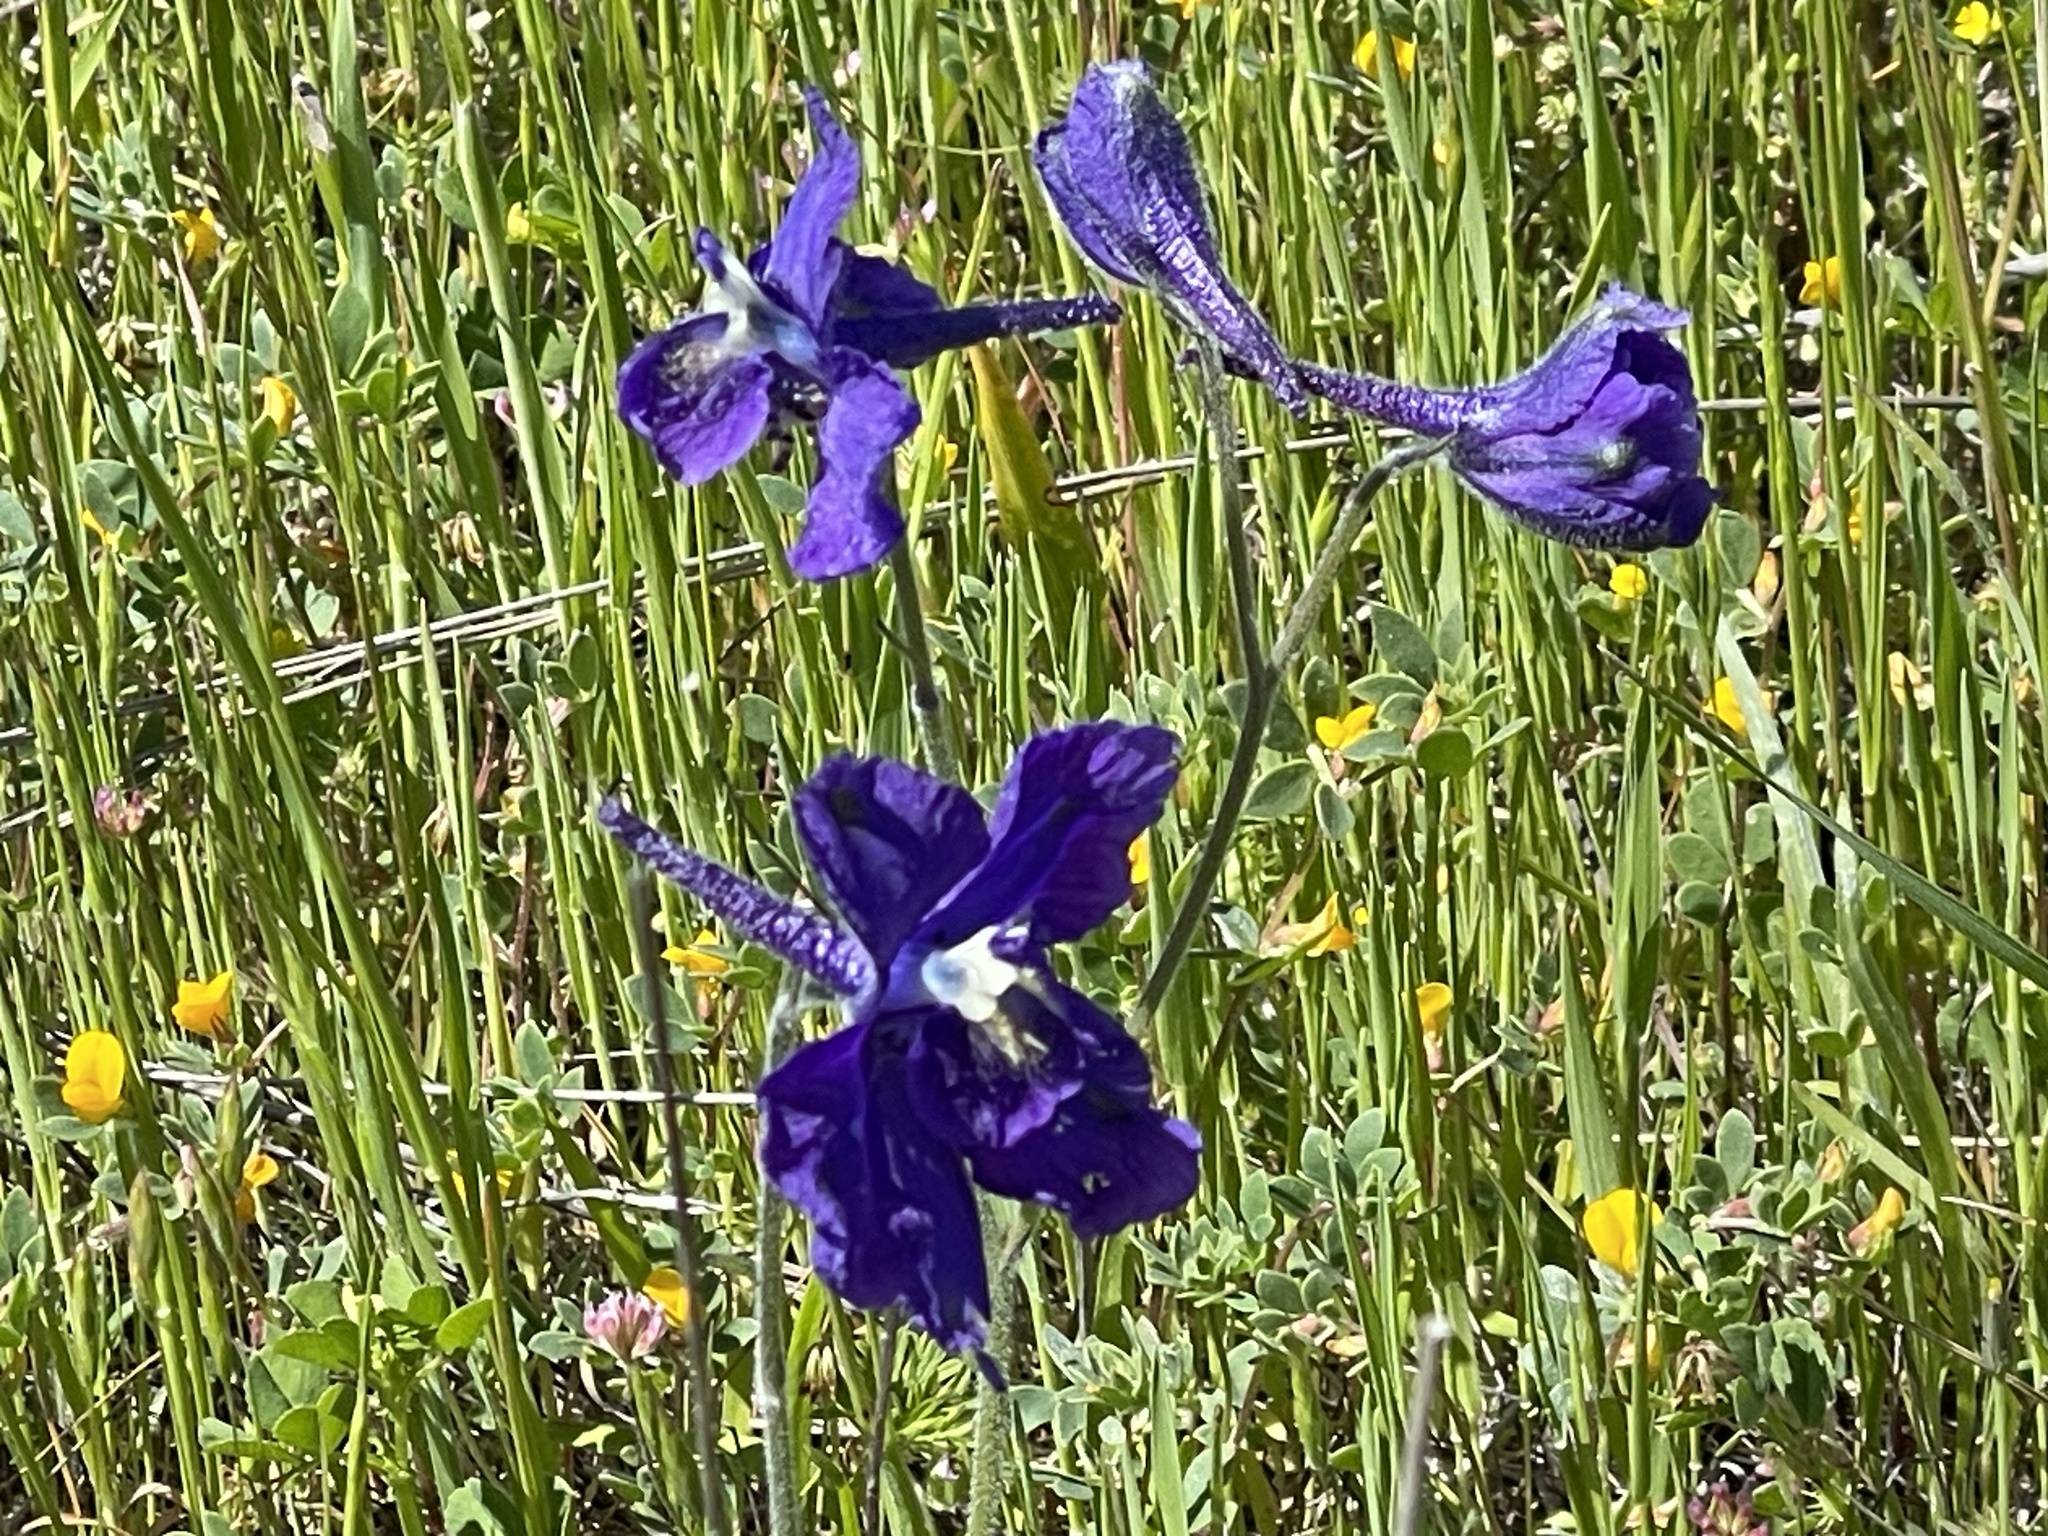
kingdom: Plantae
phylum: Tracheophyta
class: Magnoliopsida
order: Ranunculales
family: Ranunculaceae
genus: Delphinium
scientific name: Delphinium variegatum
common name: Royal larkspur
